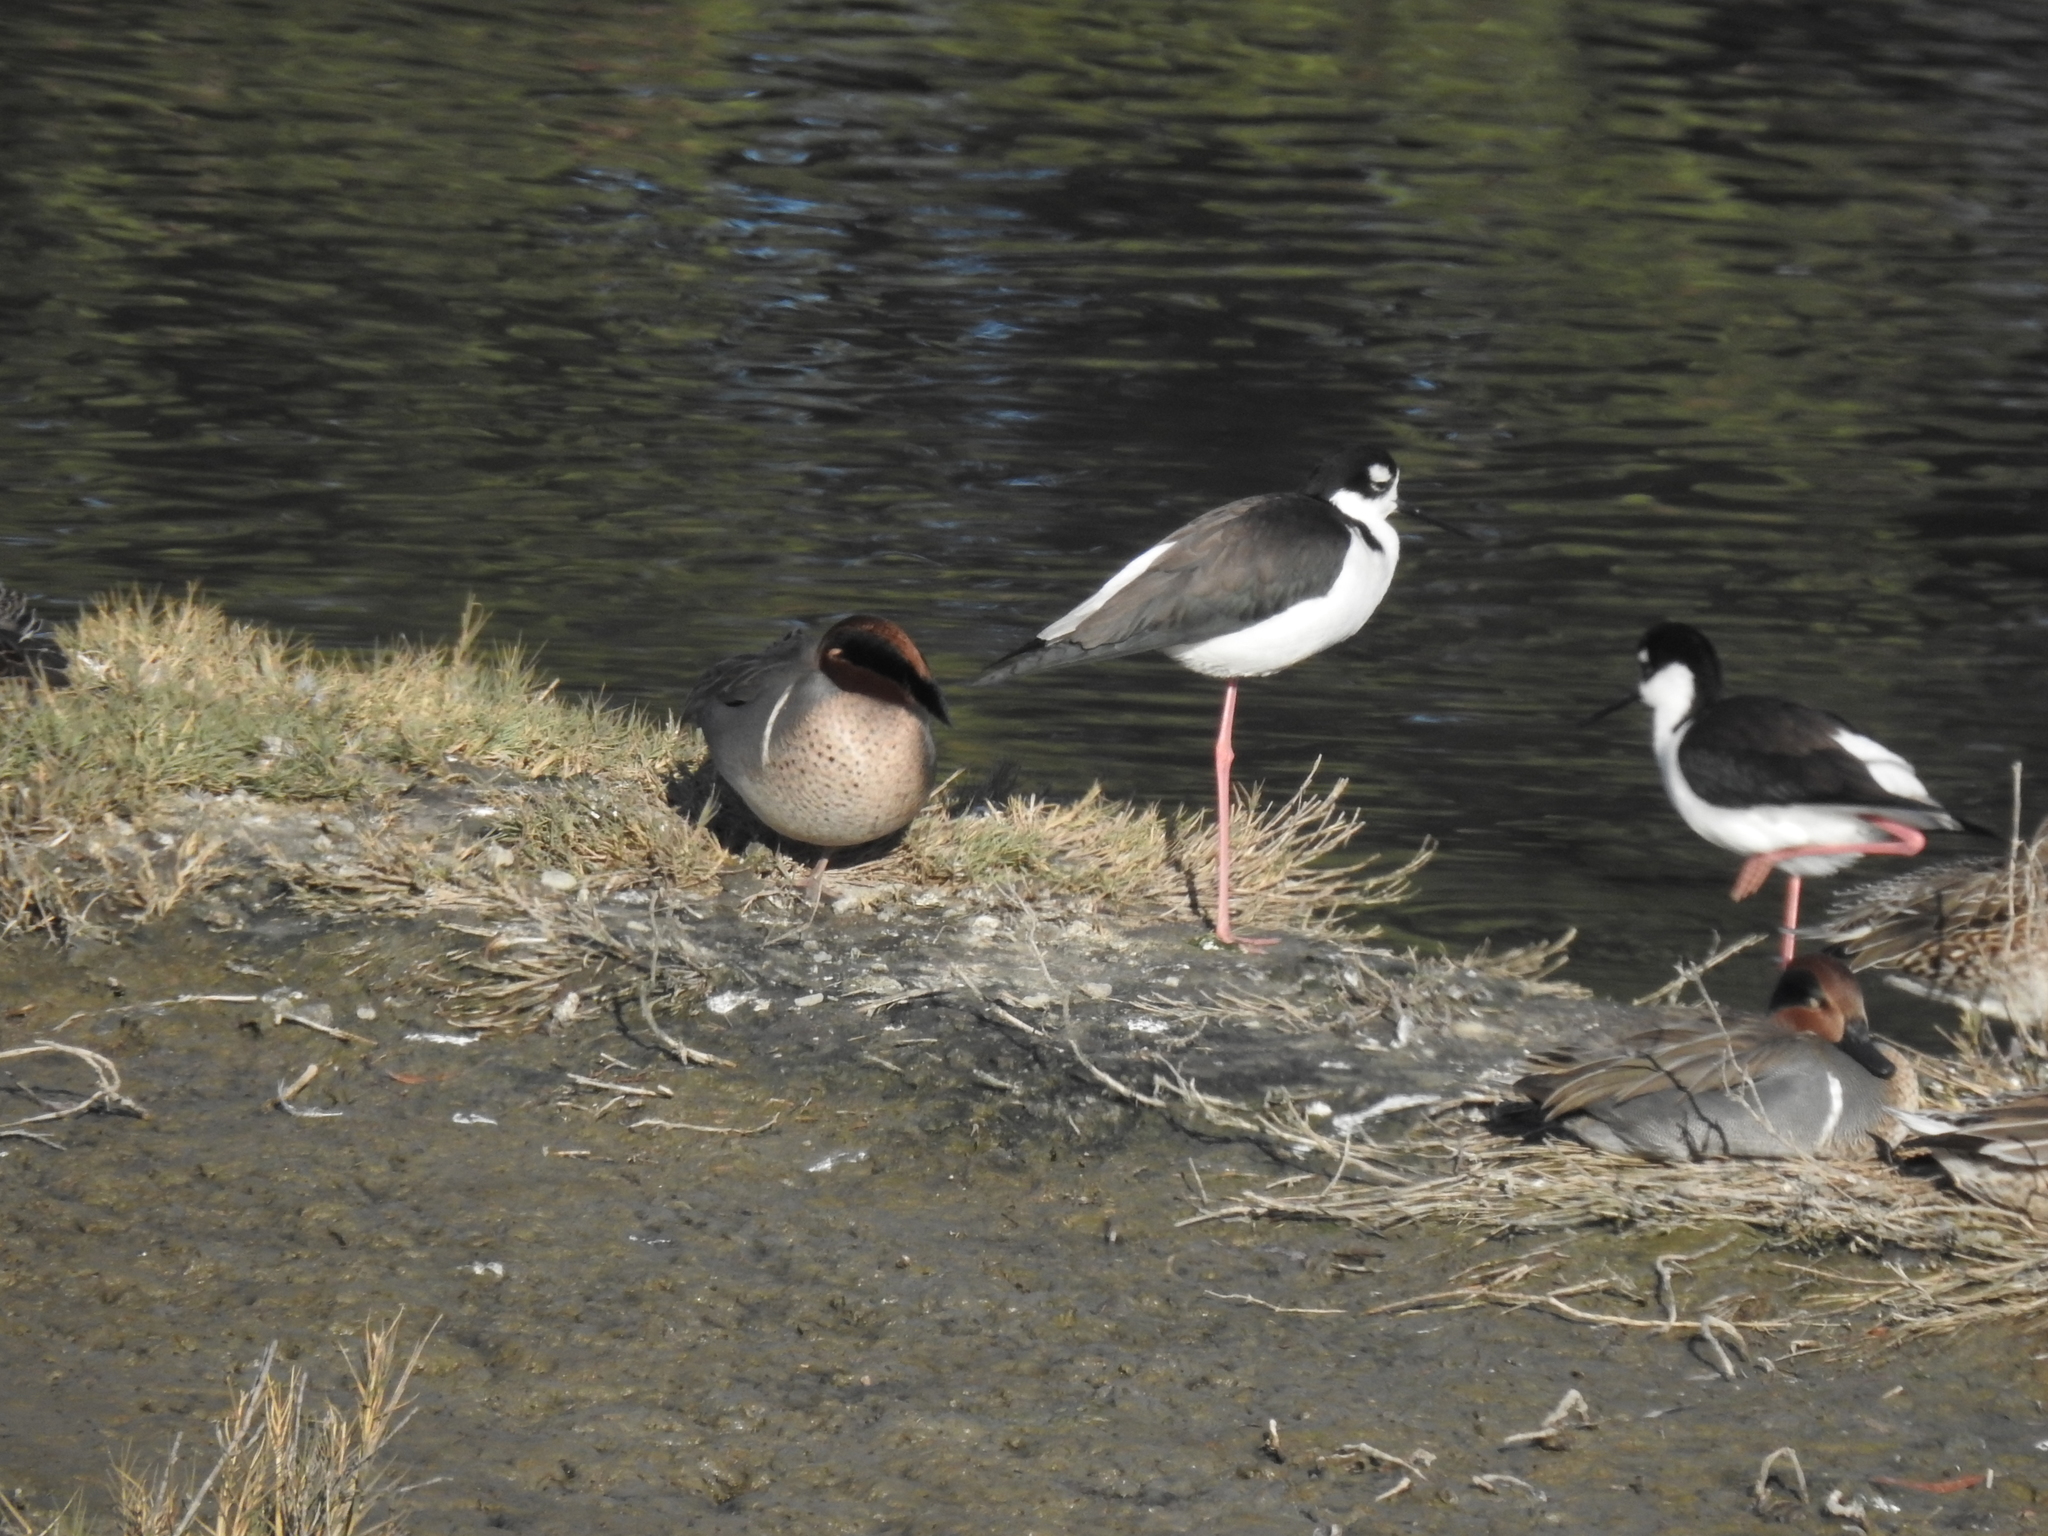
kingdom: Animalia
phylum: Chordata
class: Aves
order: Charadriiformes
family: Recurvirostridae
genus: Himantopus
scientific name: Himantopus mexicanus
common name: Black-necked stilt
